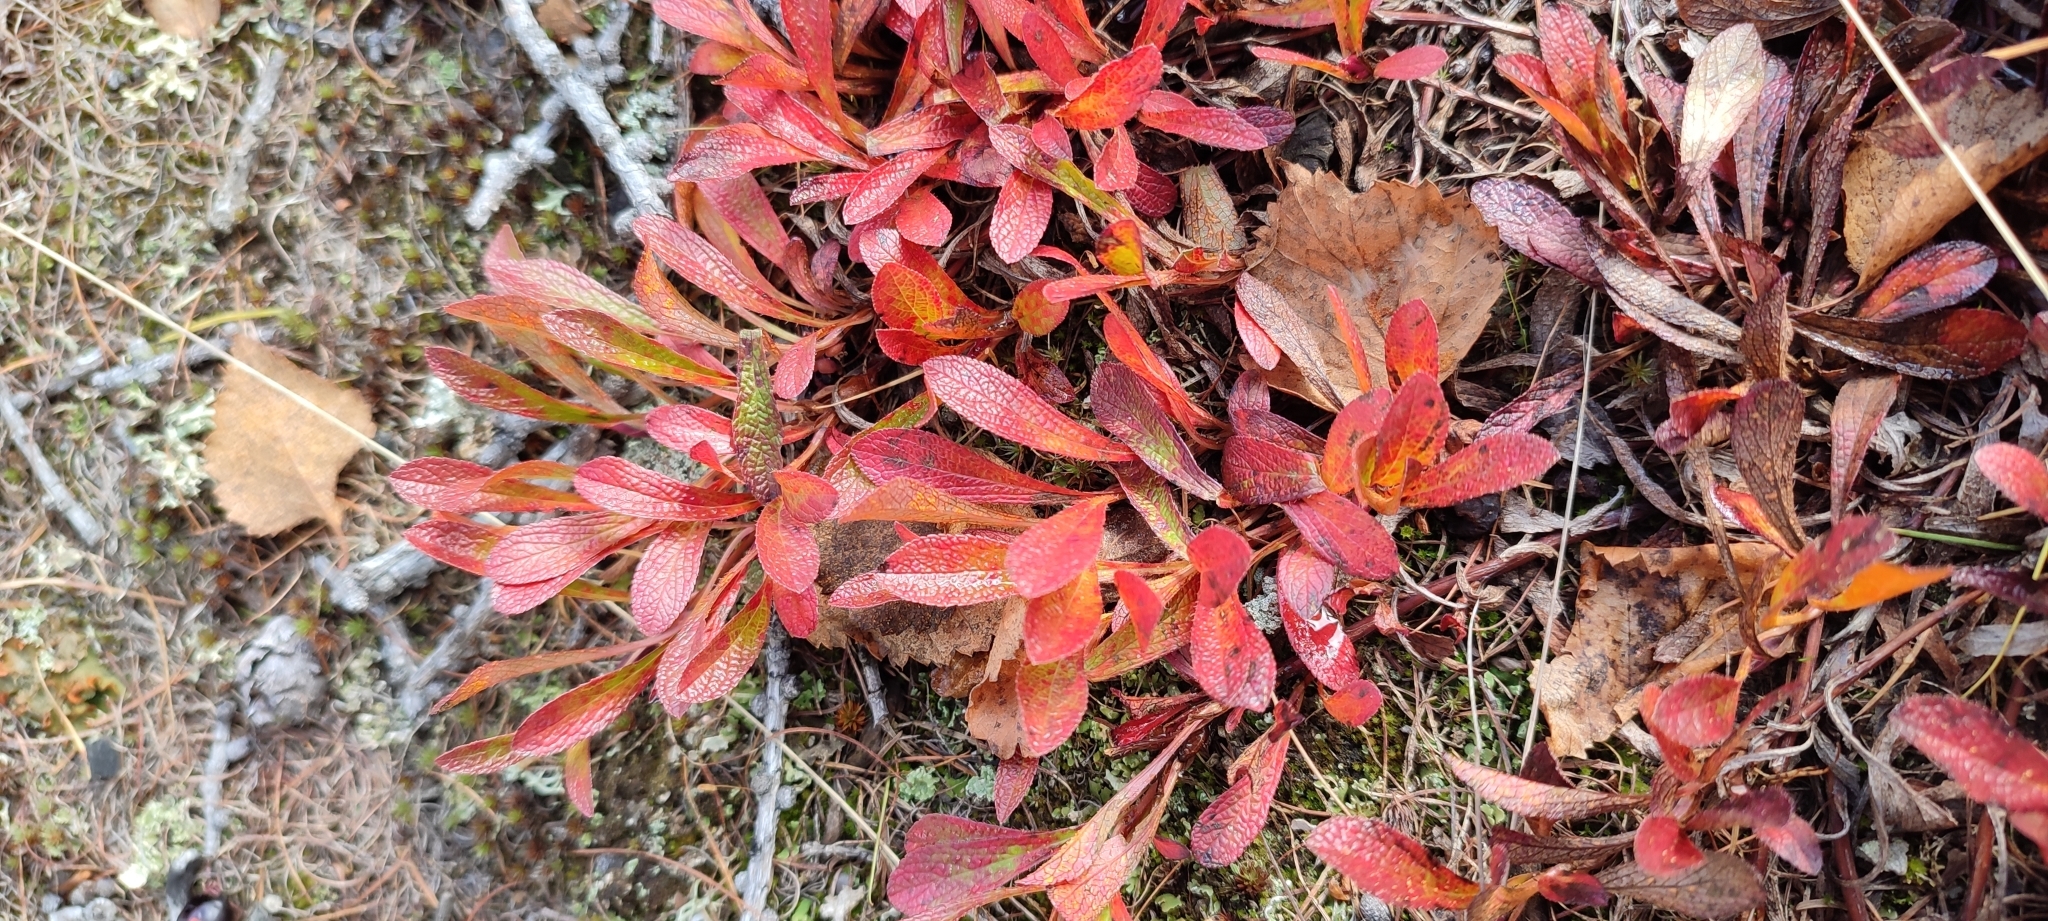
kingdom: Plantae
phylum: Tracheophyta
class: Magnoliopsida
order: Ericales
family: Ericaceae
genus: Arctostaphylos
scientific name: Arctostaphylos alpinus
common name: Alpine bearberry
